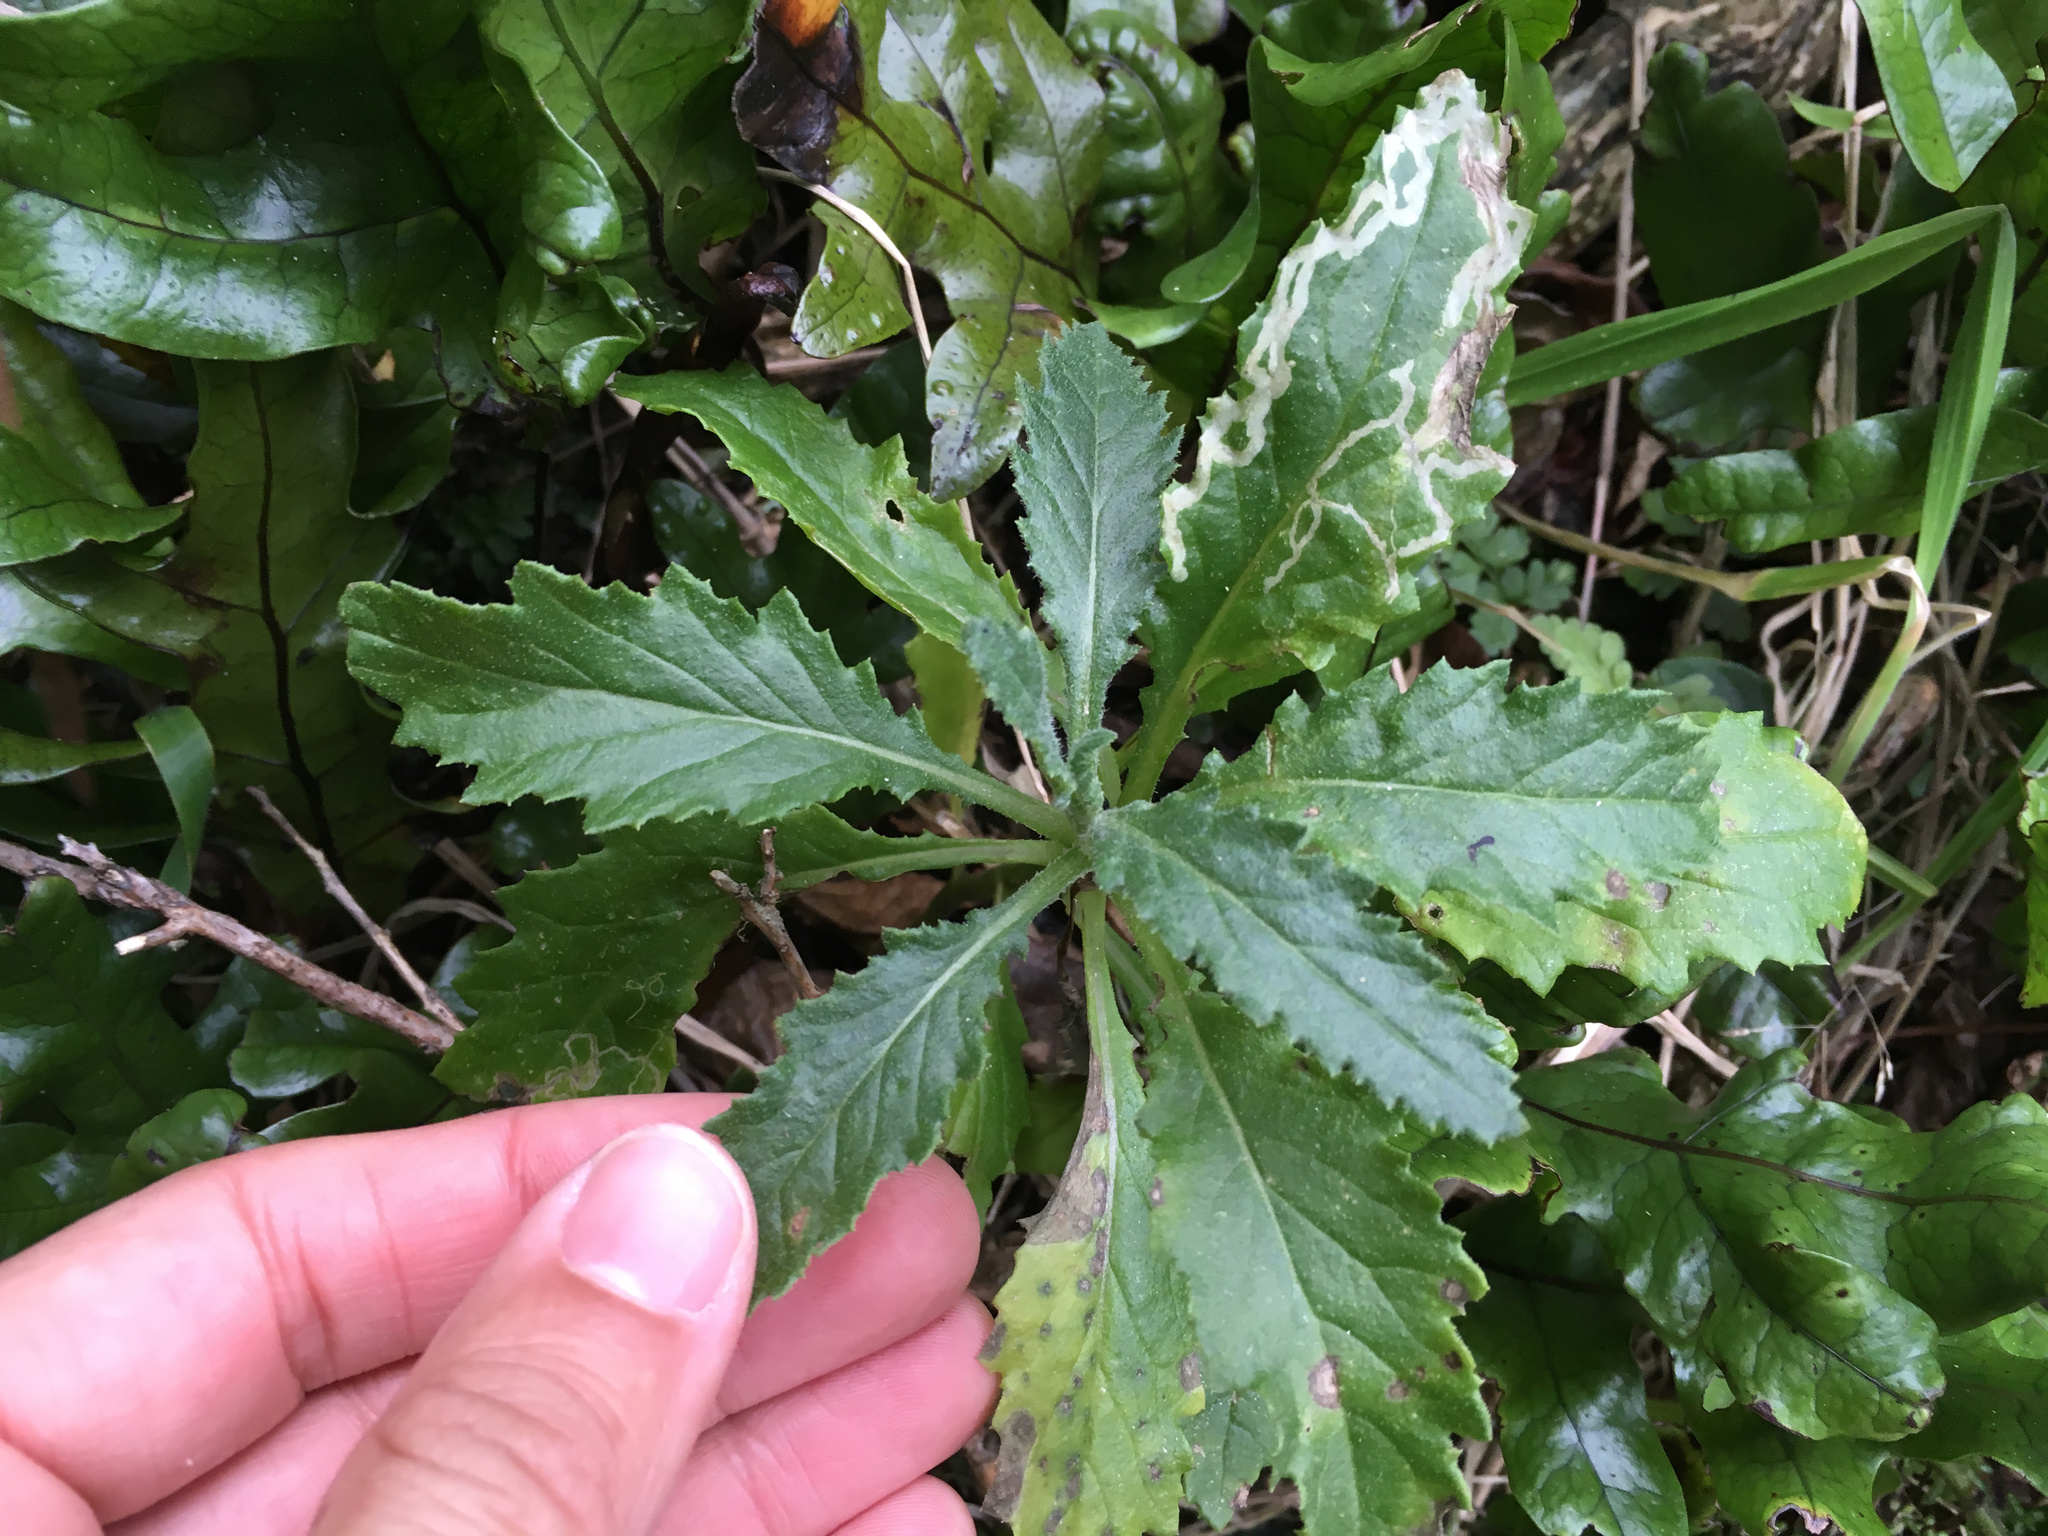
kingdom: Plantae
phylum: Tracheophyta
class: Magnoliopsida
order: Asterales
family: Asteraceae
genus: Senecio
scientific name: Senecio biserratus
